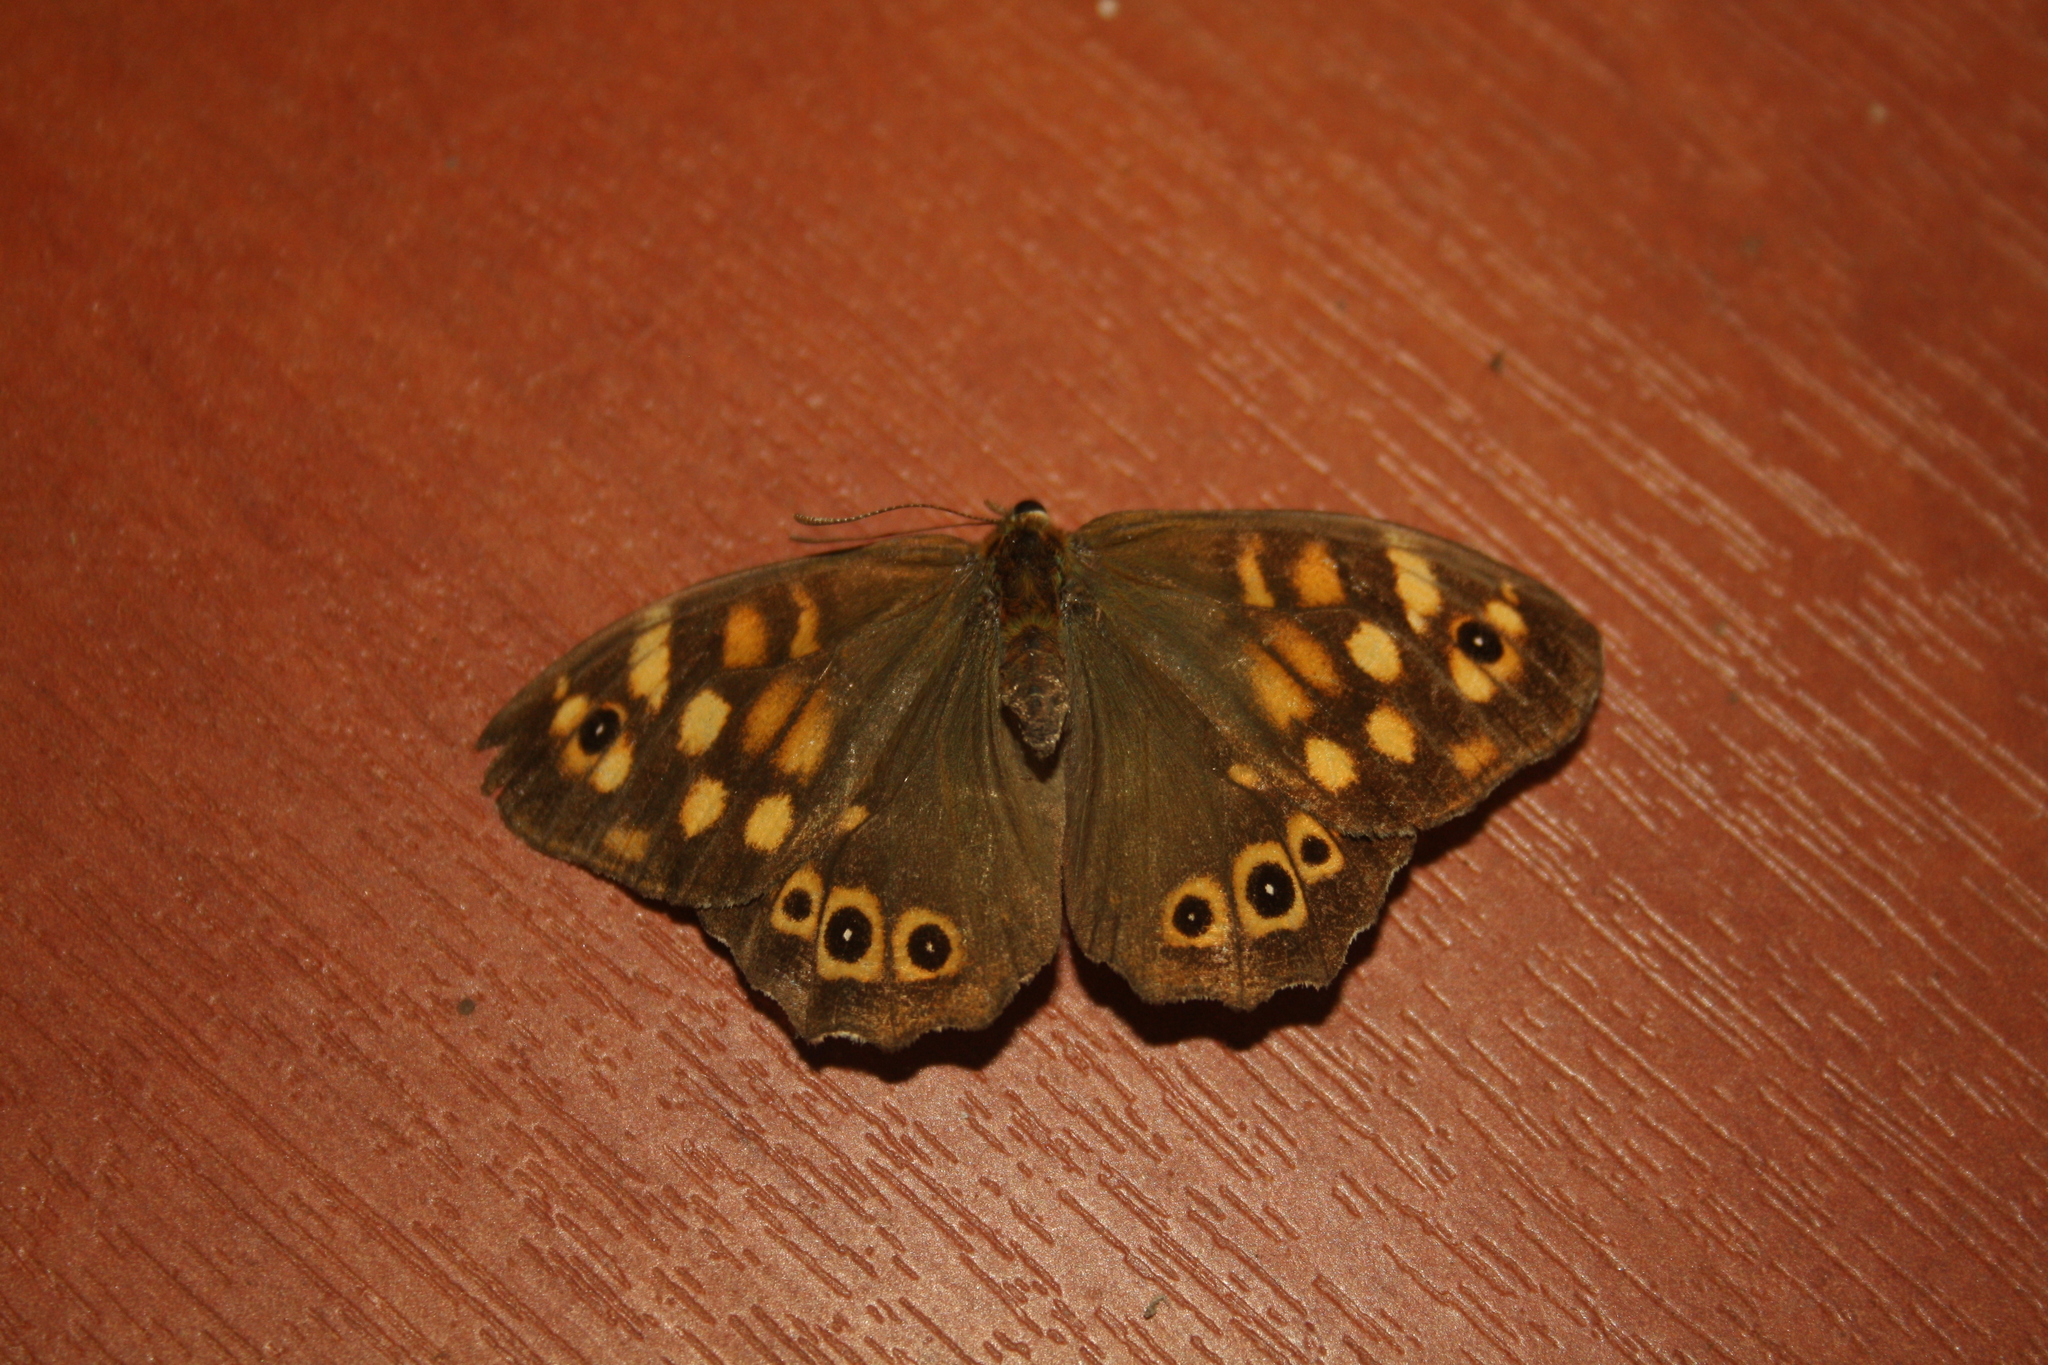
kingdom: Animalia
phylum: Arthropoda
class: Insecta
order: Lepidoptera
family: Nymphalidae
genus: Pararge
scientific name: Pararge aegeria
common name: Speckled wood
